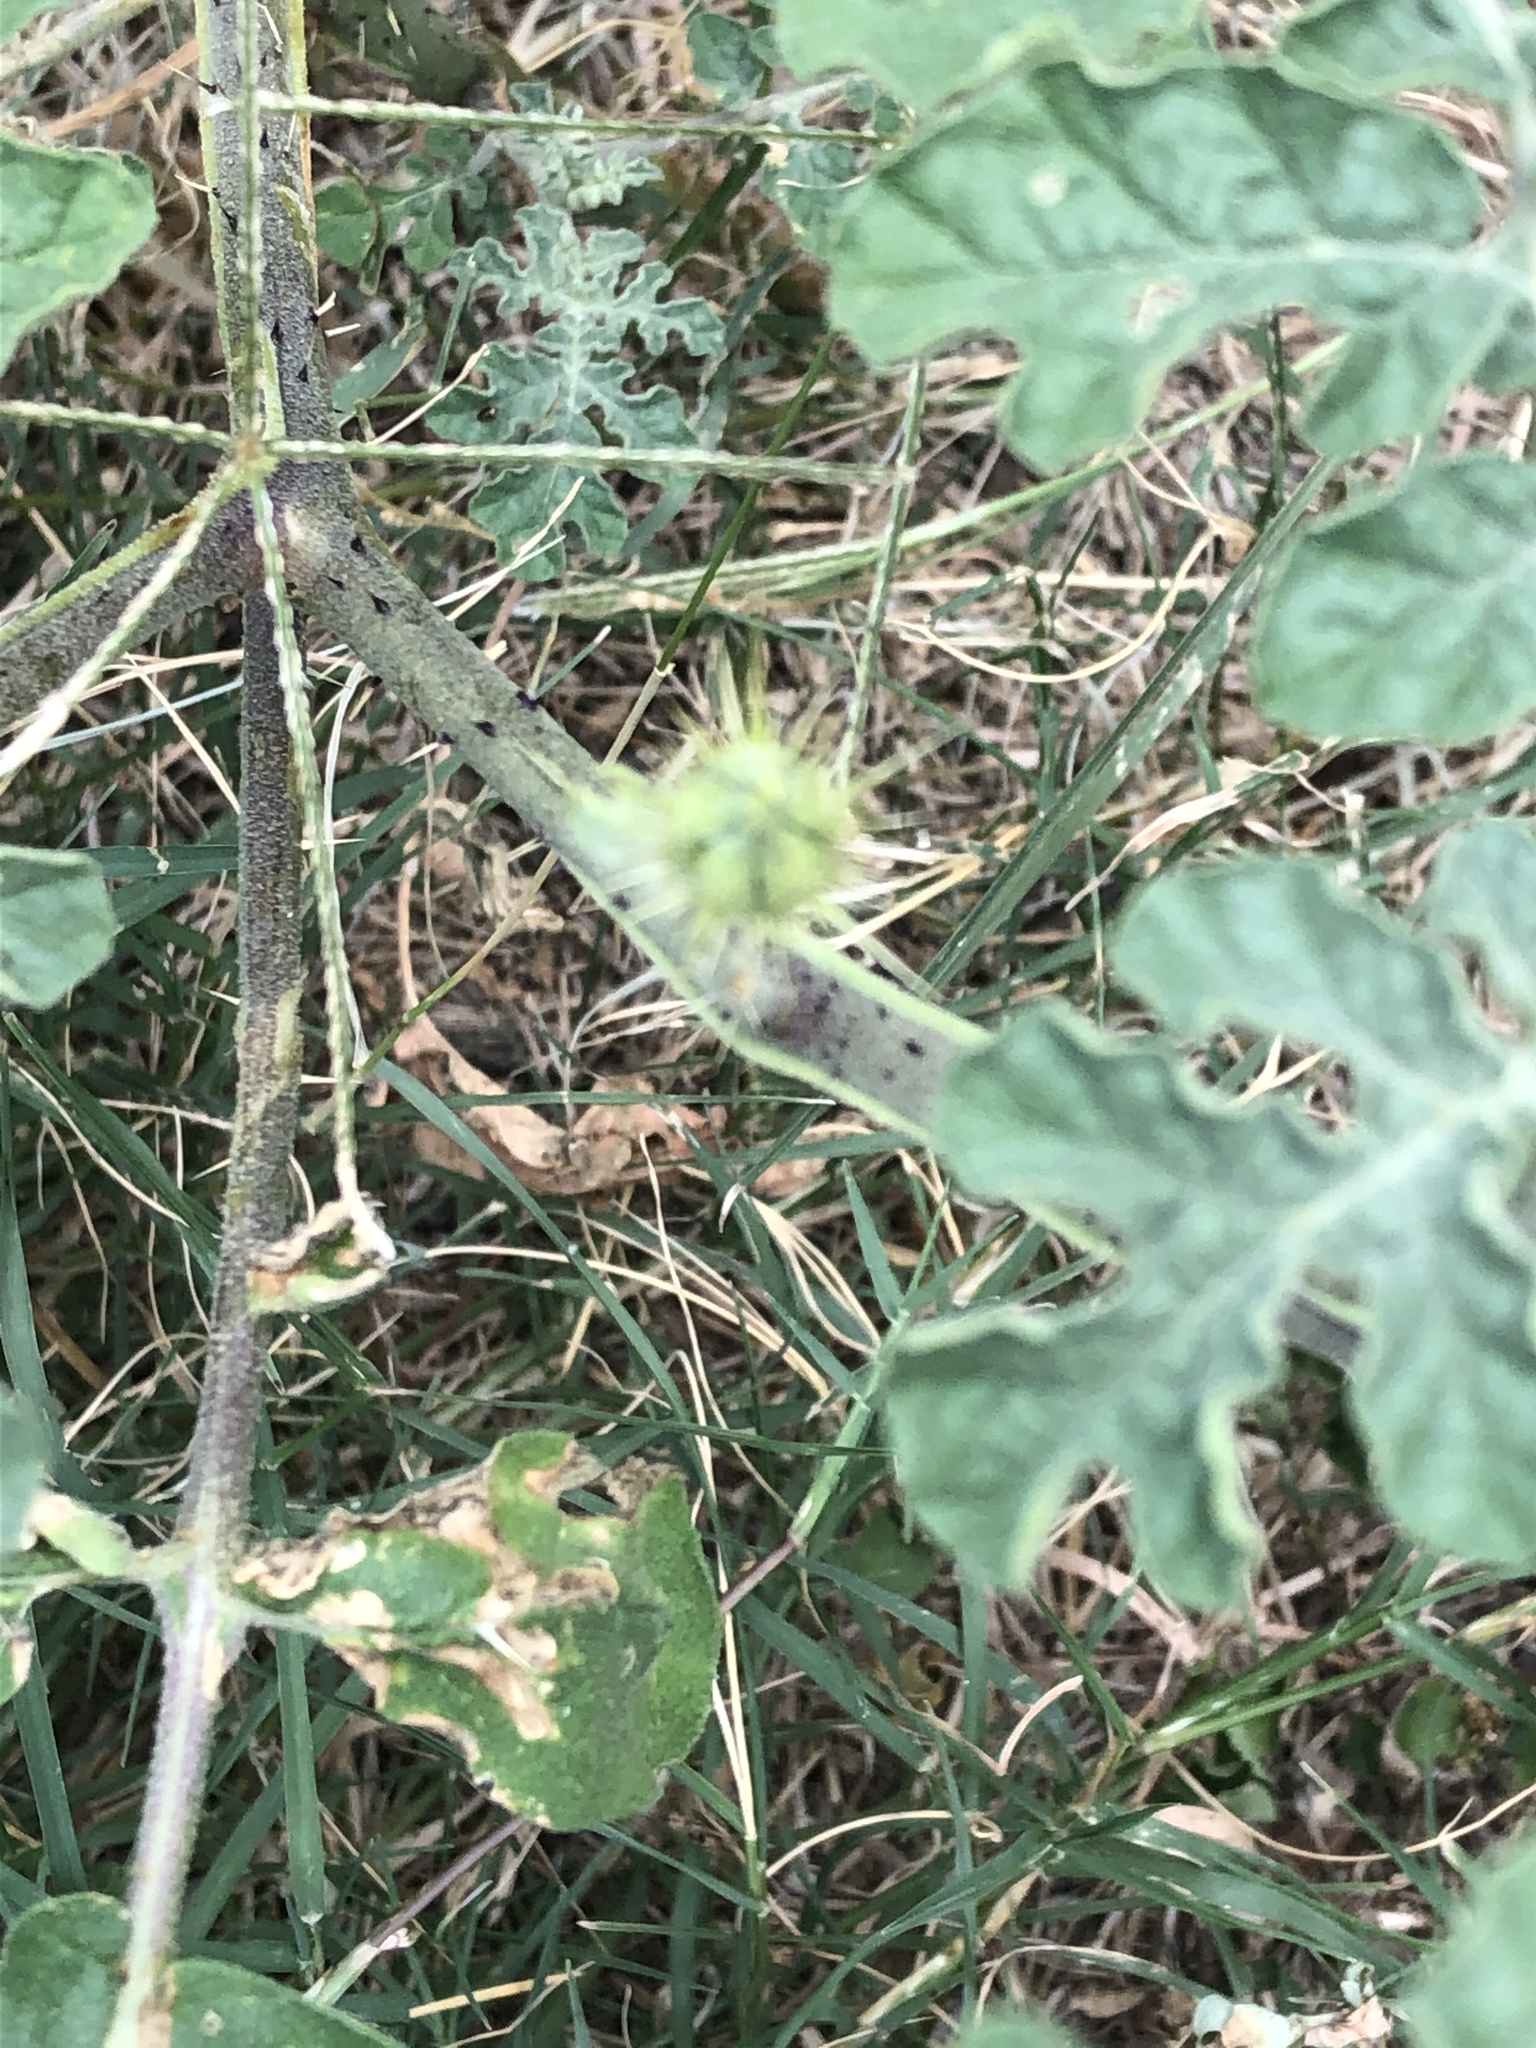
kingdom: Plantae
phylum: Tracheophyta
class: Magnoliopsida
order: Solanales
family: Solanaceae
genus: Solanum
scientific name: Solanum angustifolium
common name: Buffalobur nightshade
